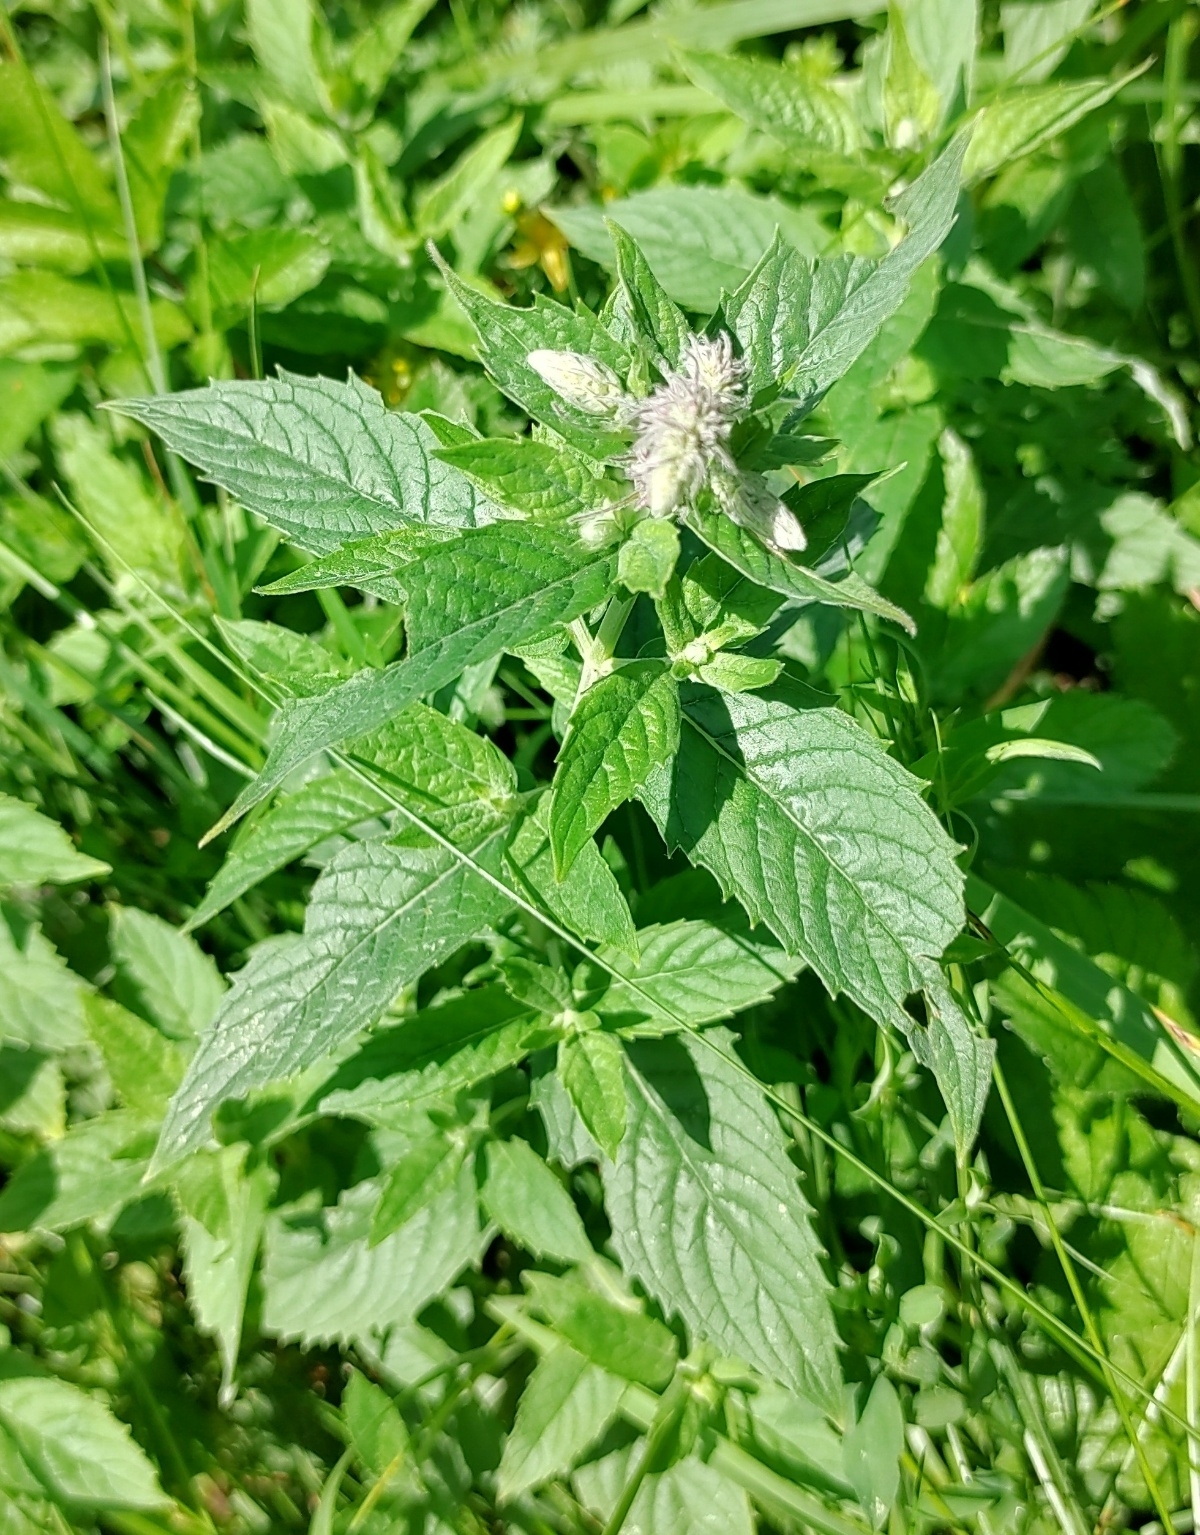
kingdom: Plantae
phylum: Tracheophyta
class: Magnoliopsida
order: Lamiales
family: Lamiaceae
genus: Mentha
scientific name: Mentha longifolia
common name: Horse mint
